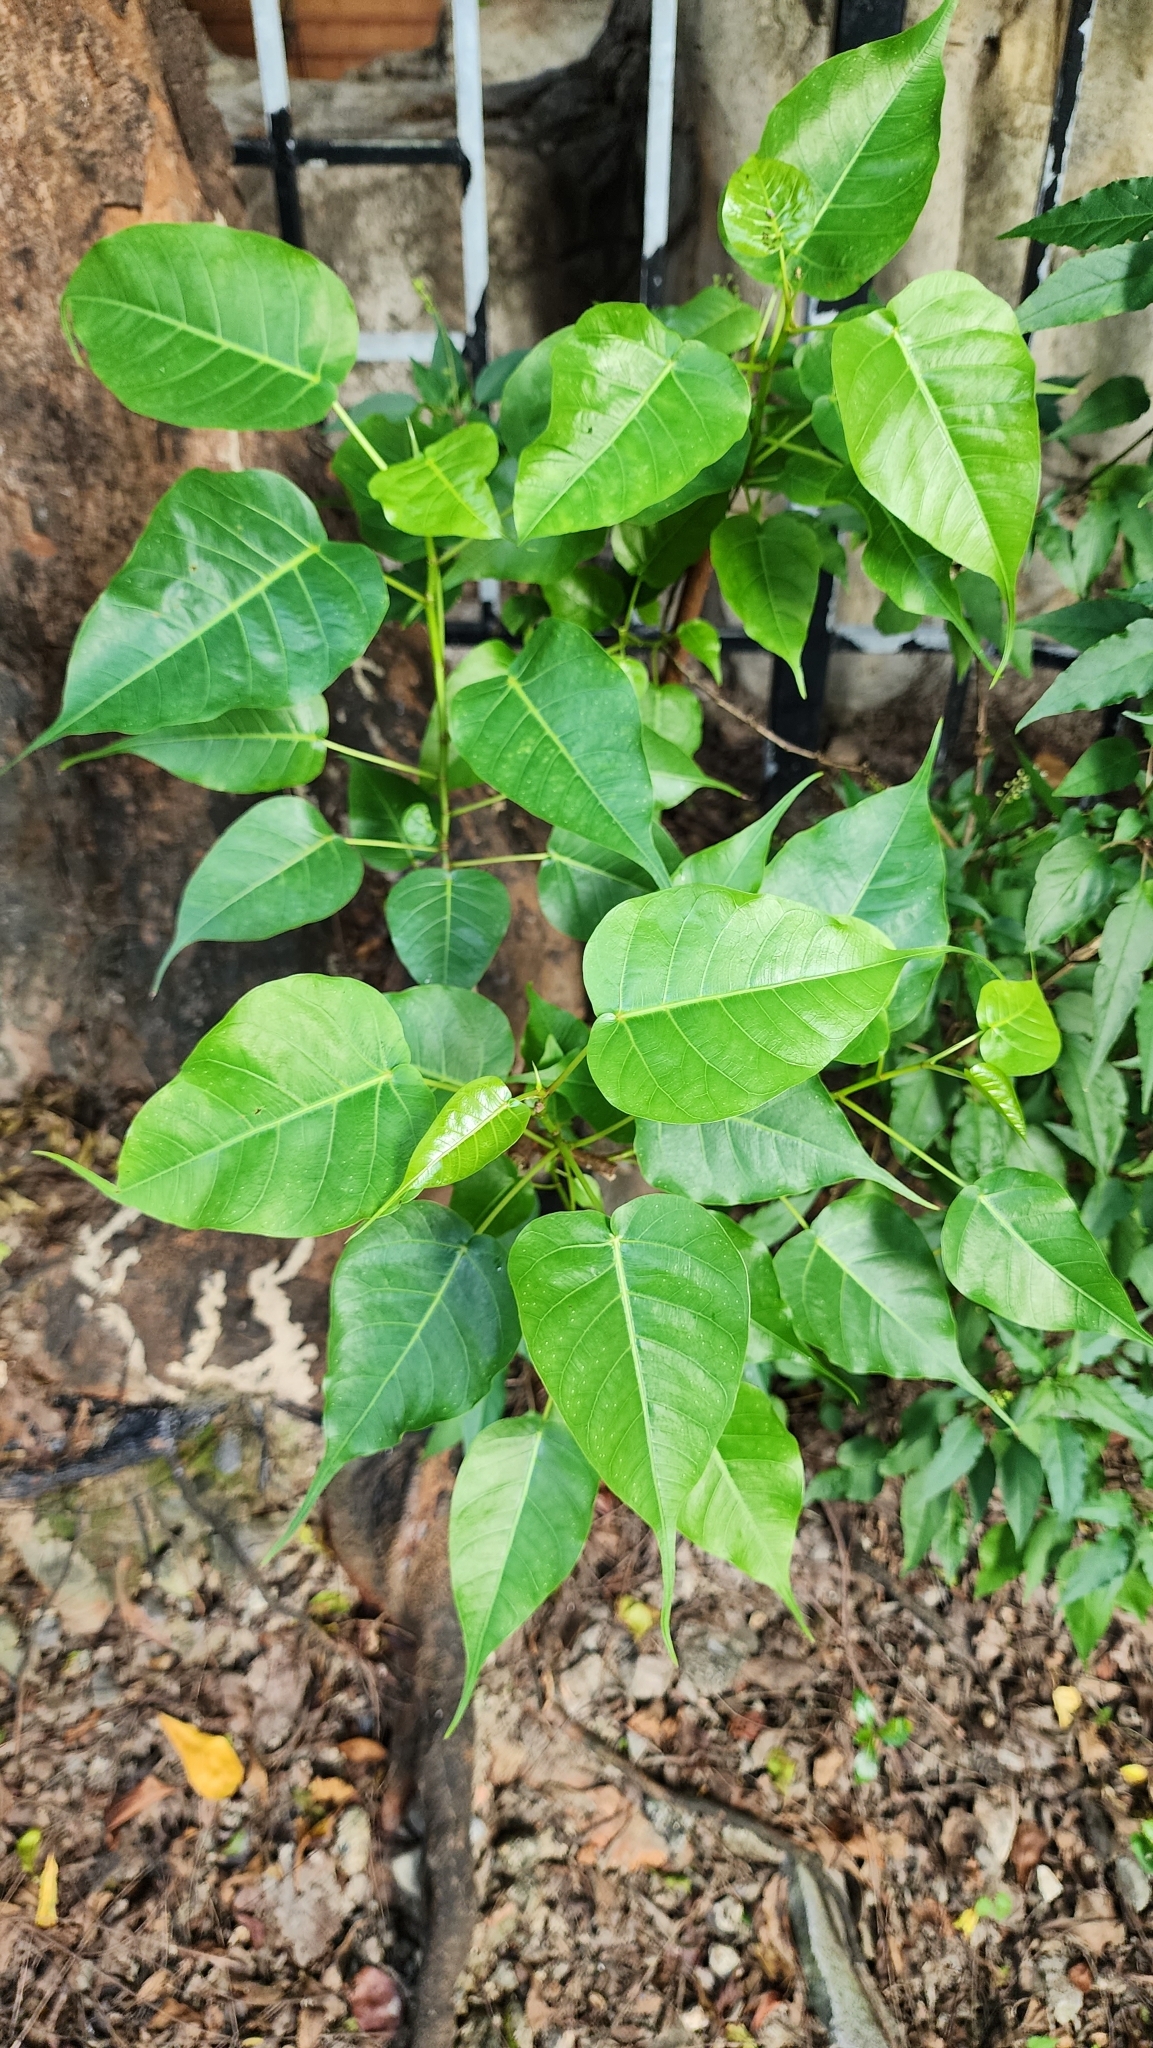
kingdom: Plantae
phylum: Tracheophyta
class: Magnoliopsida
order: Rosales
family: Moraceae
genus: Ficus
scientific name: Ficus religiosa
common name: Bodhi tree
